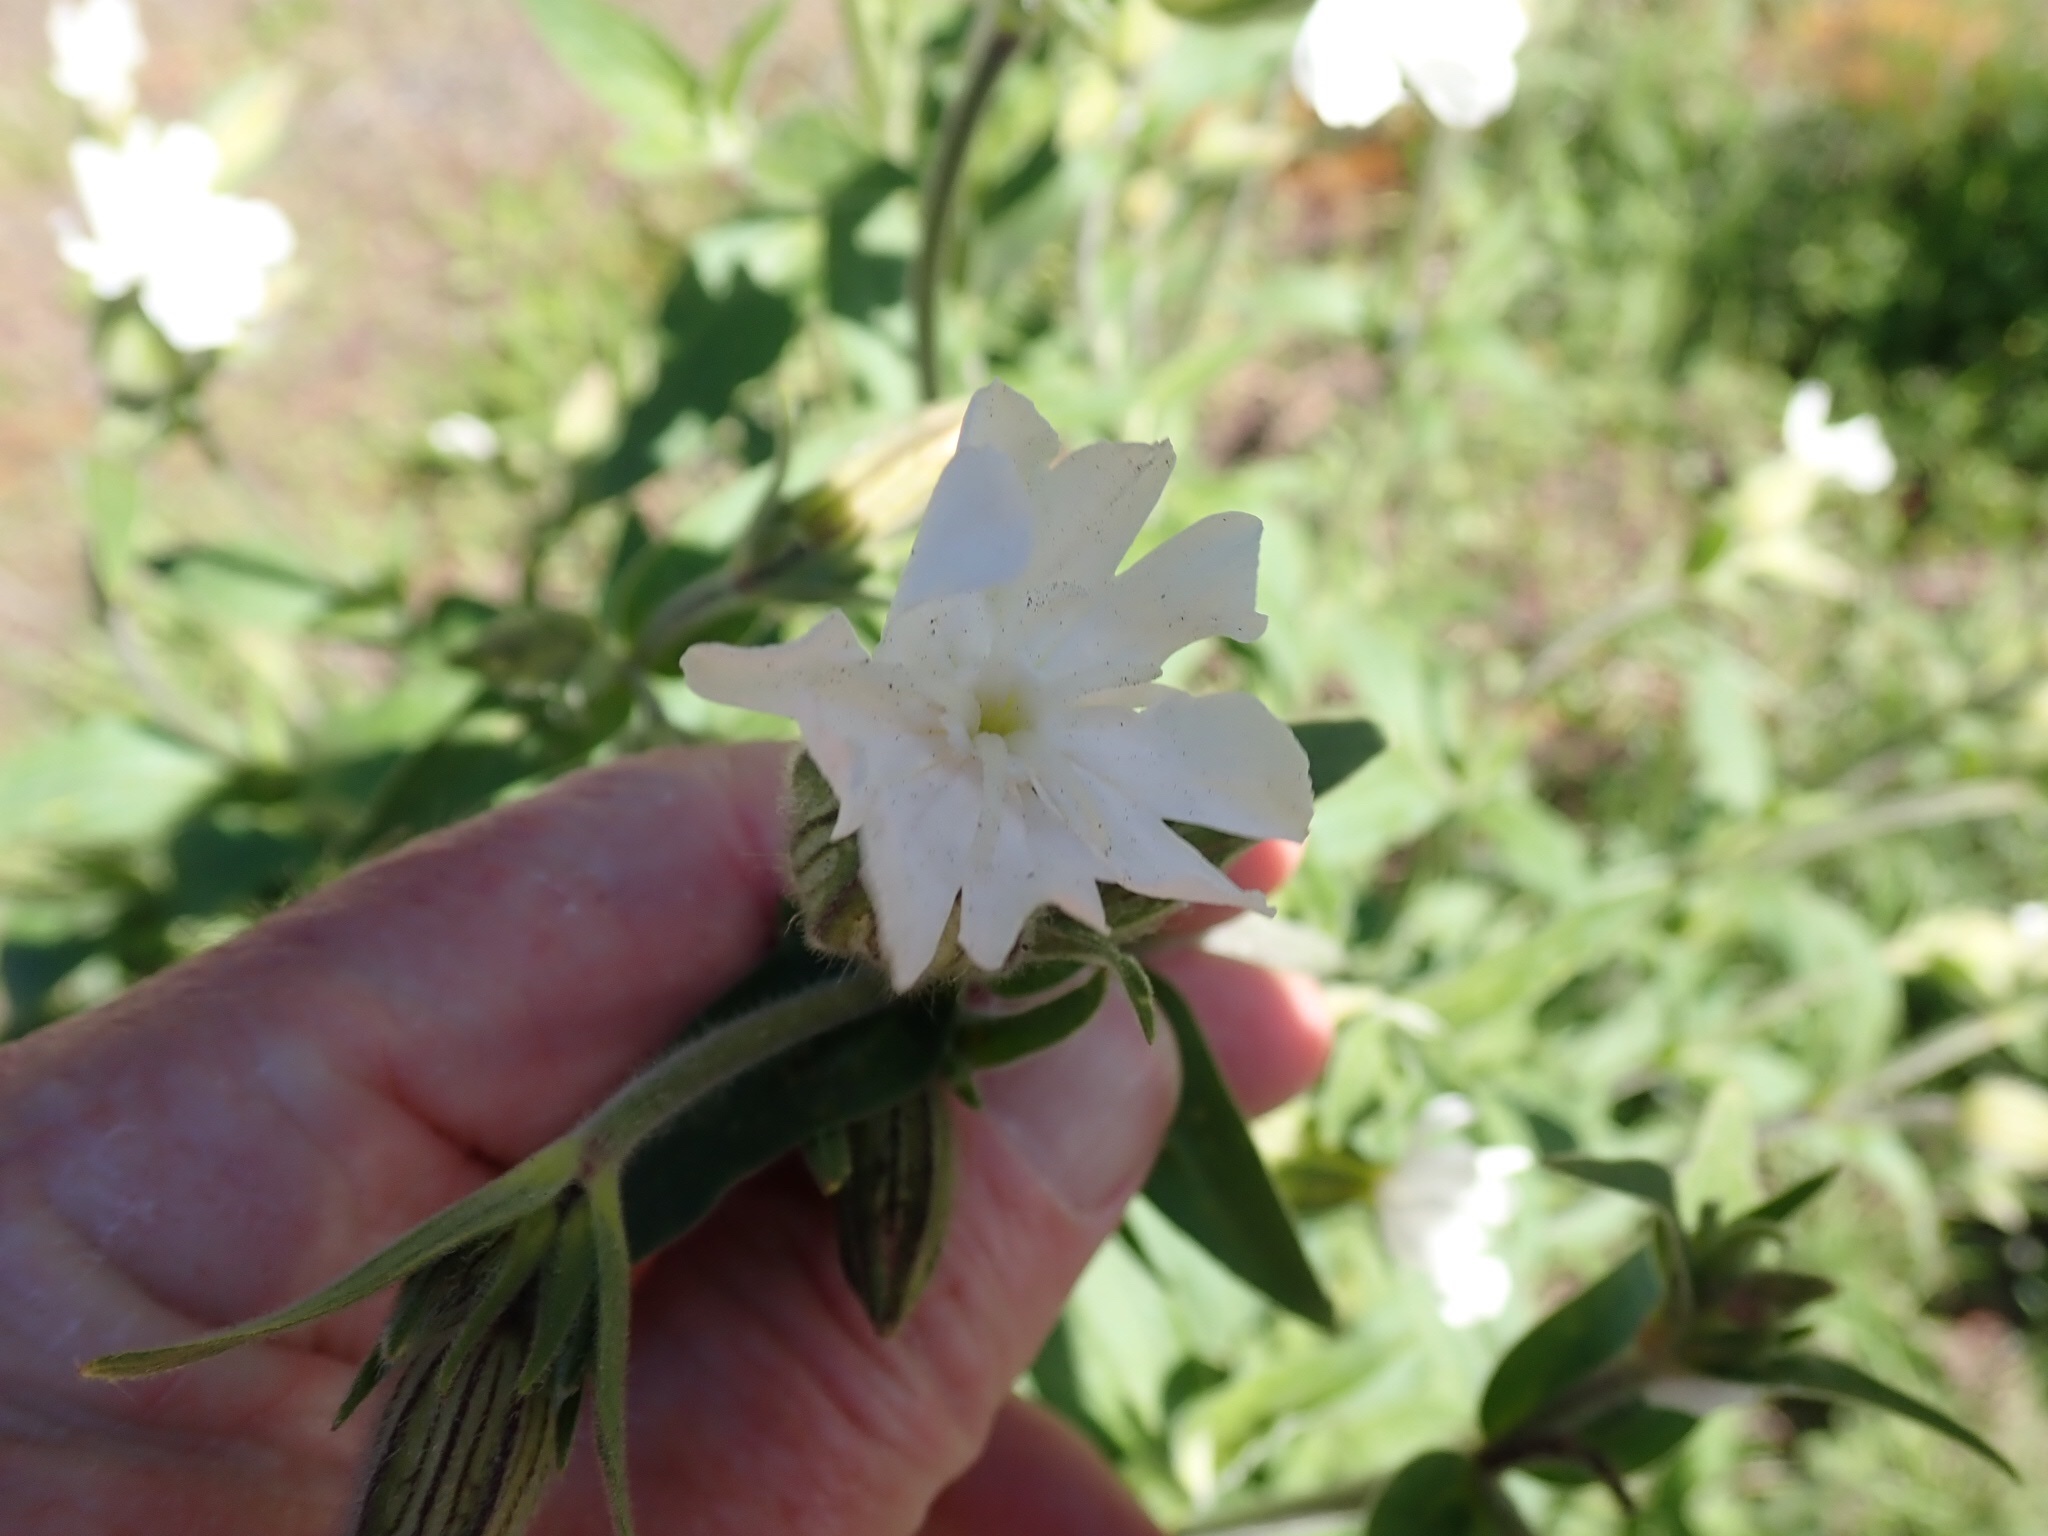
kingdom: Plantae
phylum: Tracheophyta
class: Magnoliopsida
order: Caryophyllales
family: Caryophyllaceae
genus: Silene
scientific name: Silene latifolia
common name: White campion
